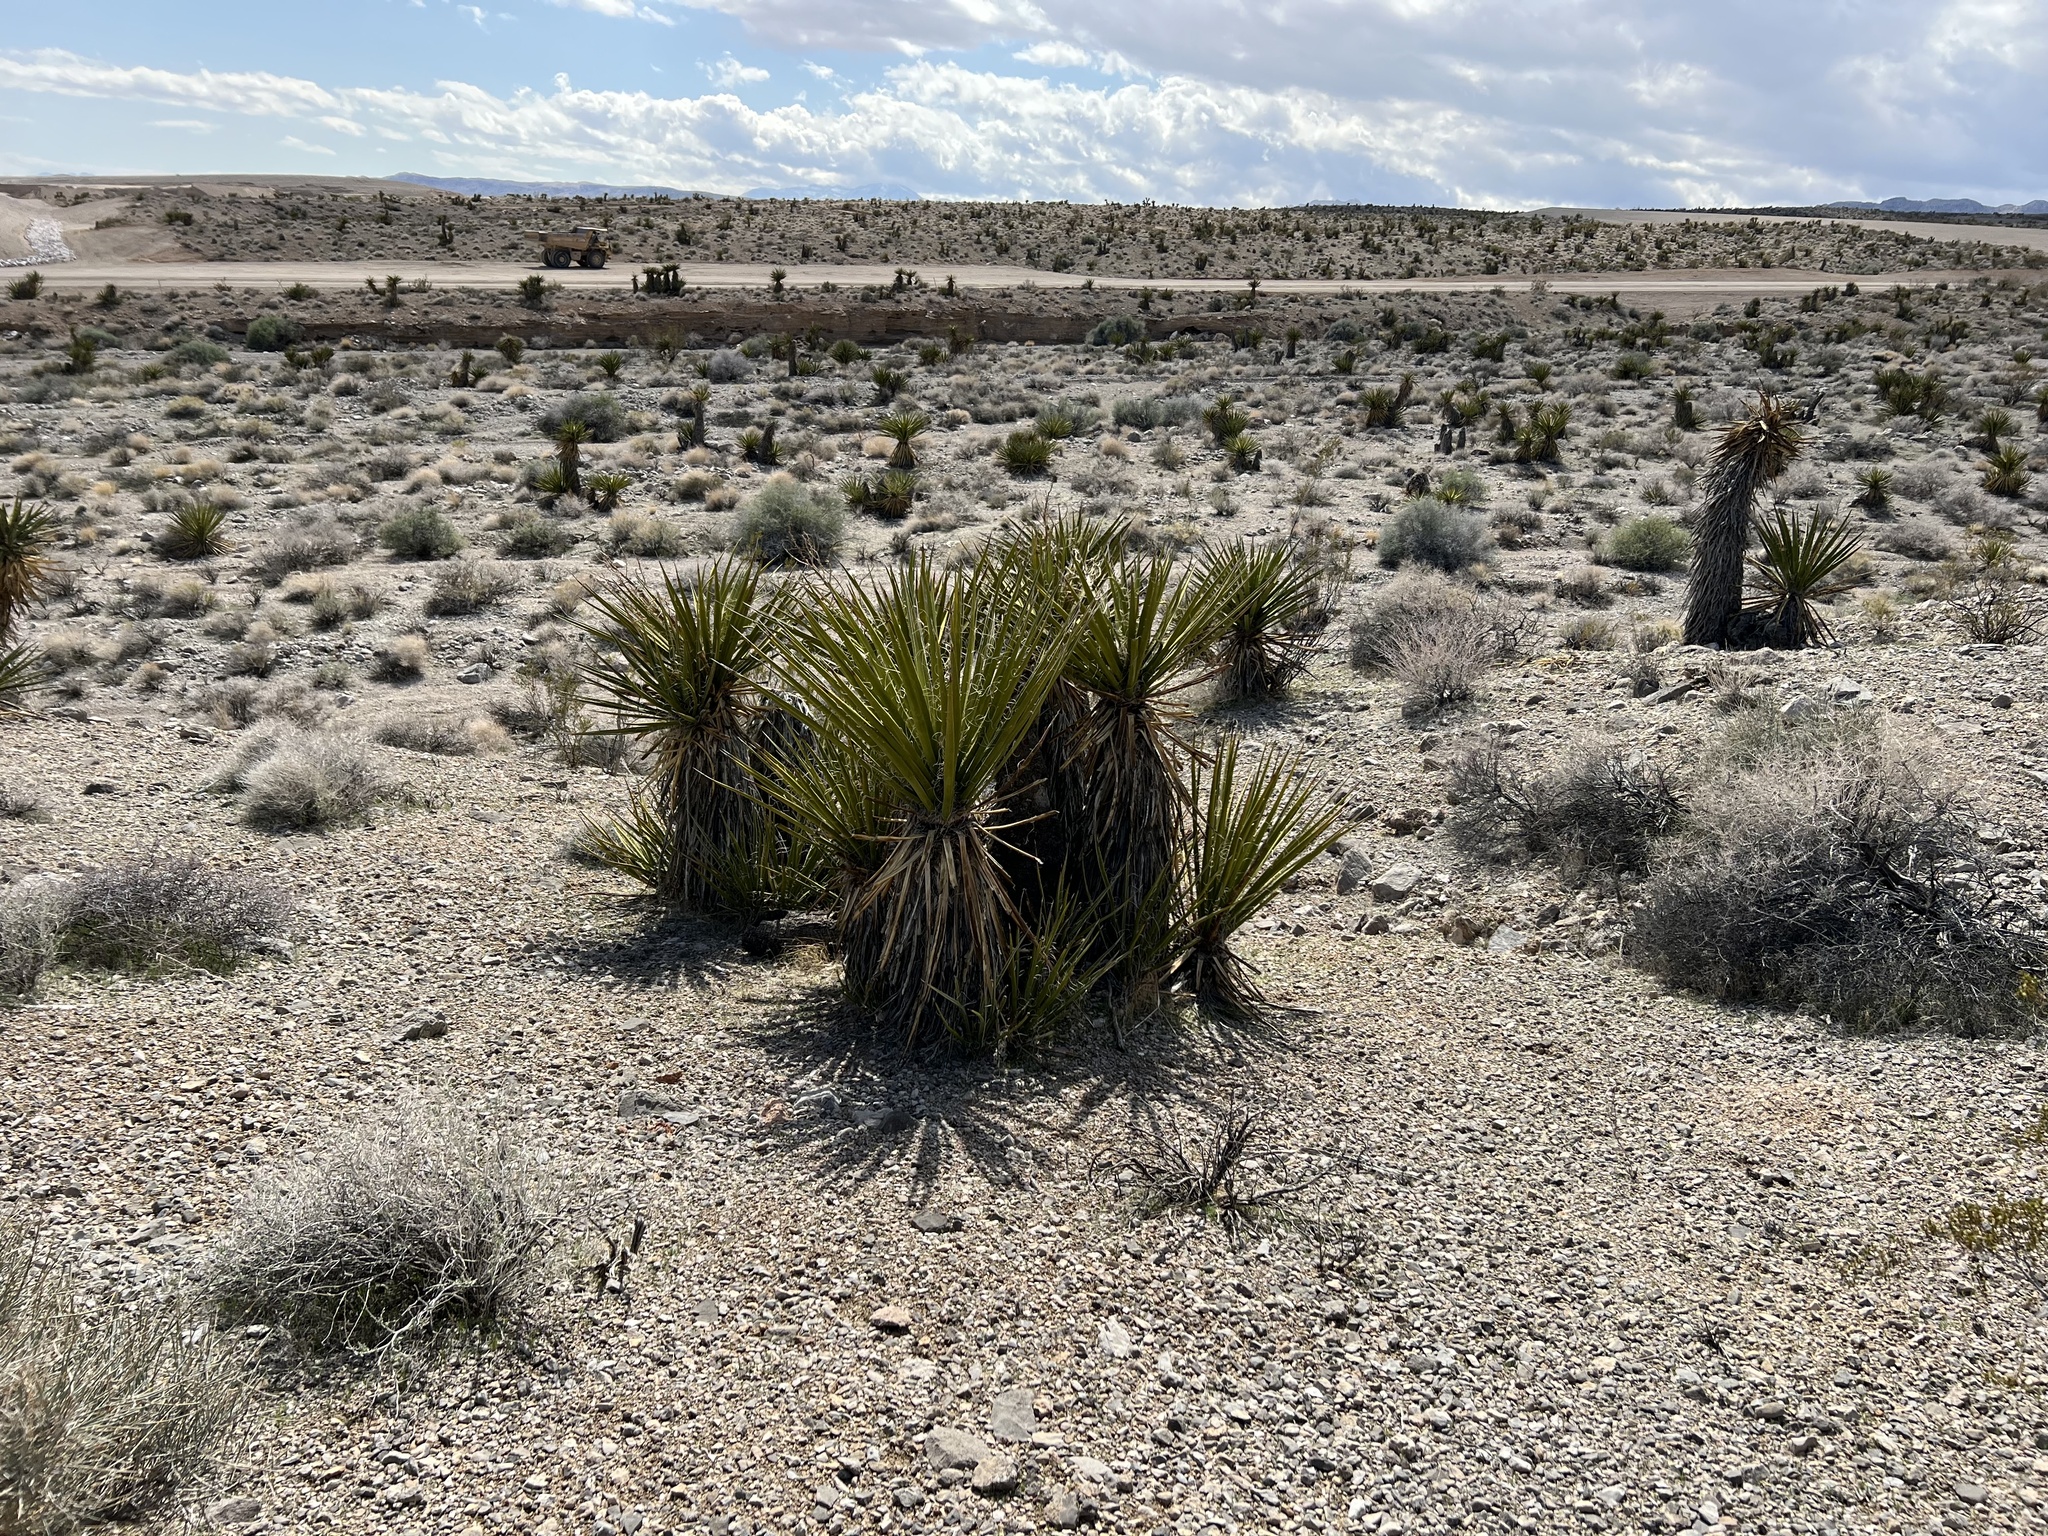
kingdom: Plantae
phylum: Tracheophyta
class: Liliopsida
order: Asparagales
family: Asparagaceae
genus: Yucca
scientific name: Yucca schidigera
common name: Mojave yucca
